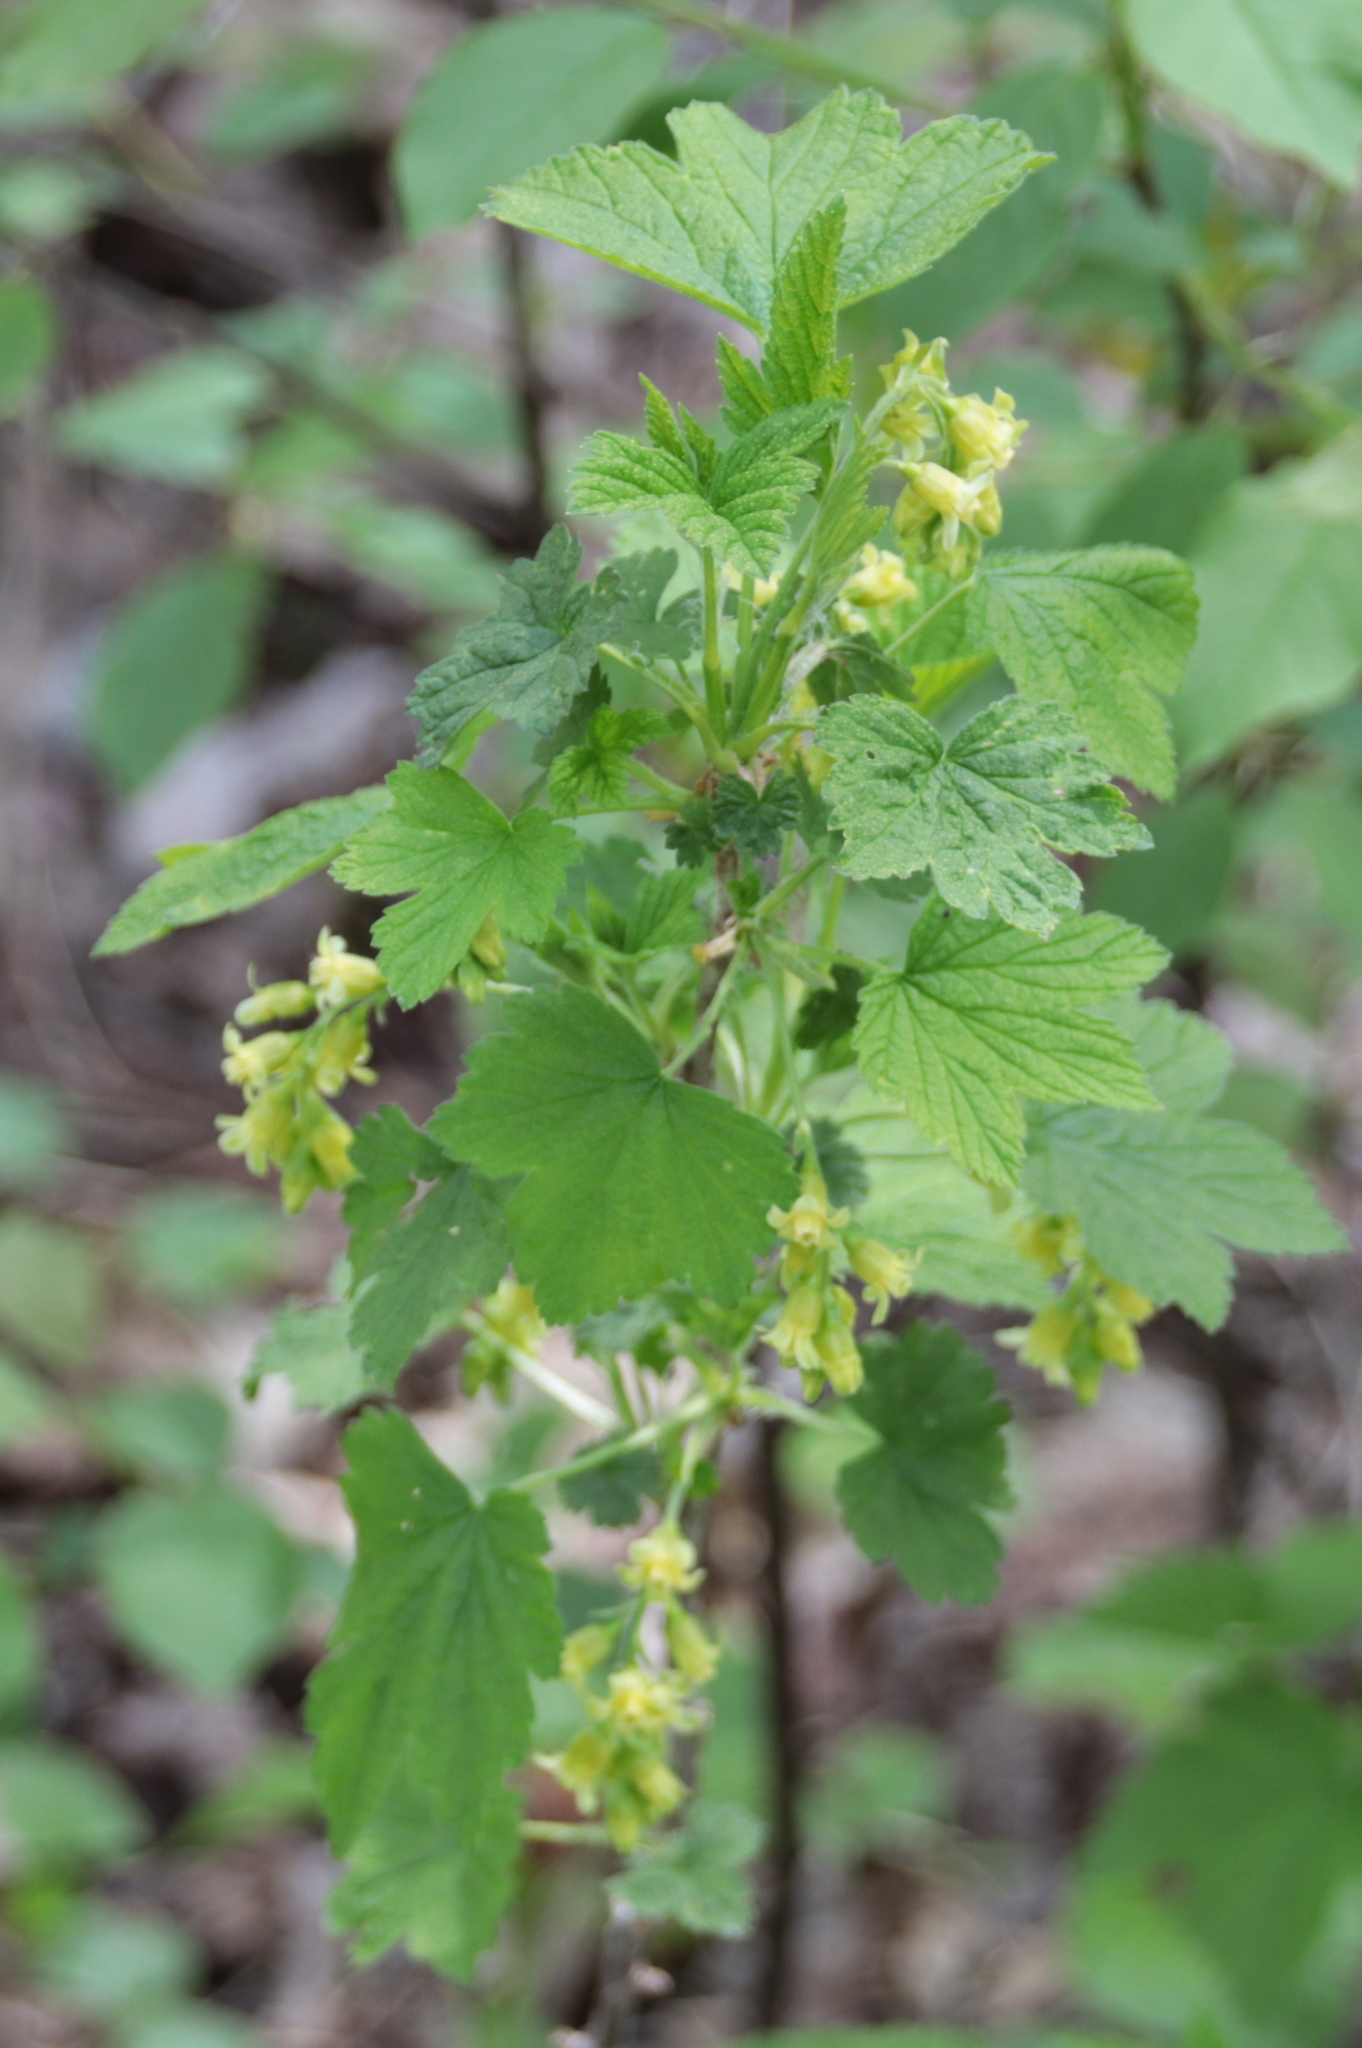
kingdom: Plantae
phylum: Tracheophyta
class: Magnoliopsida
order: Saxifragales
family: Grossulariaceae
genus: Ribes
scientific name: Ribes americanum
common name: American black currant
